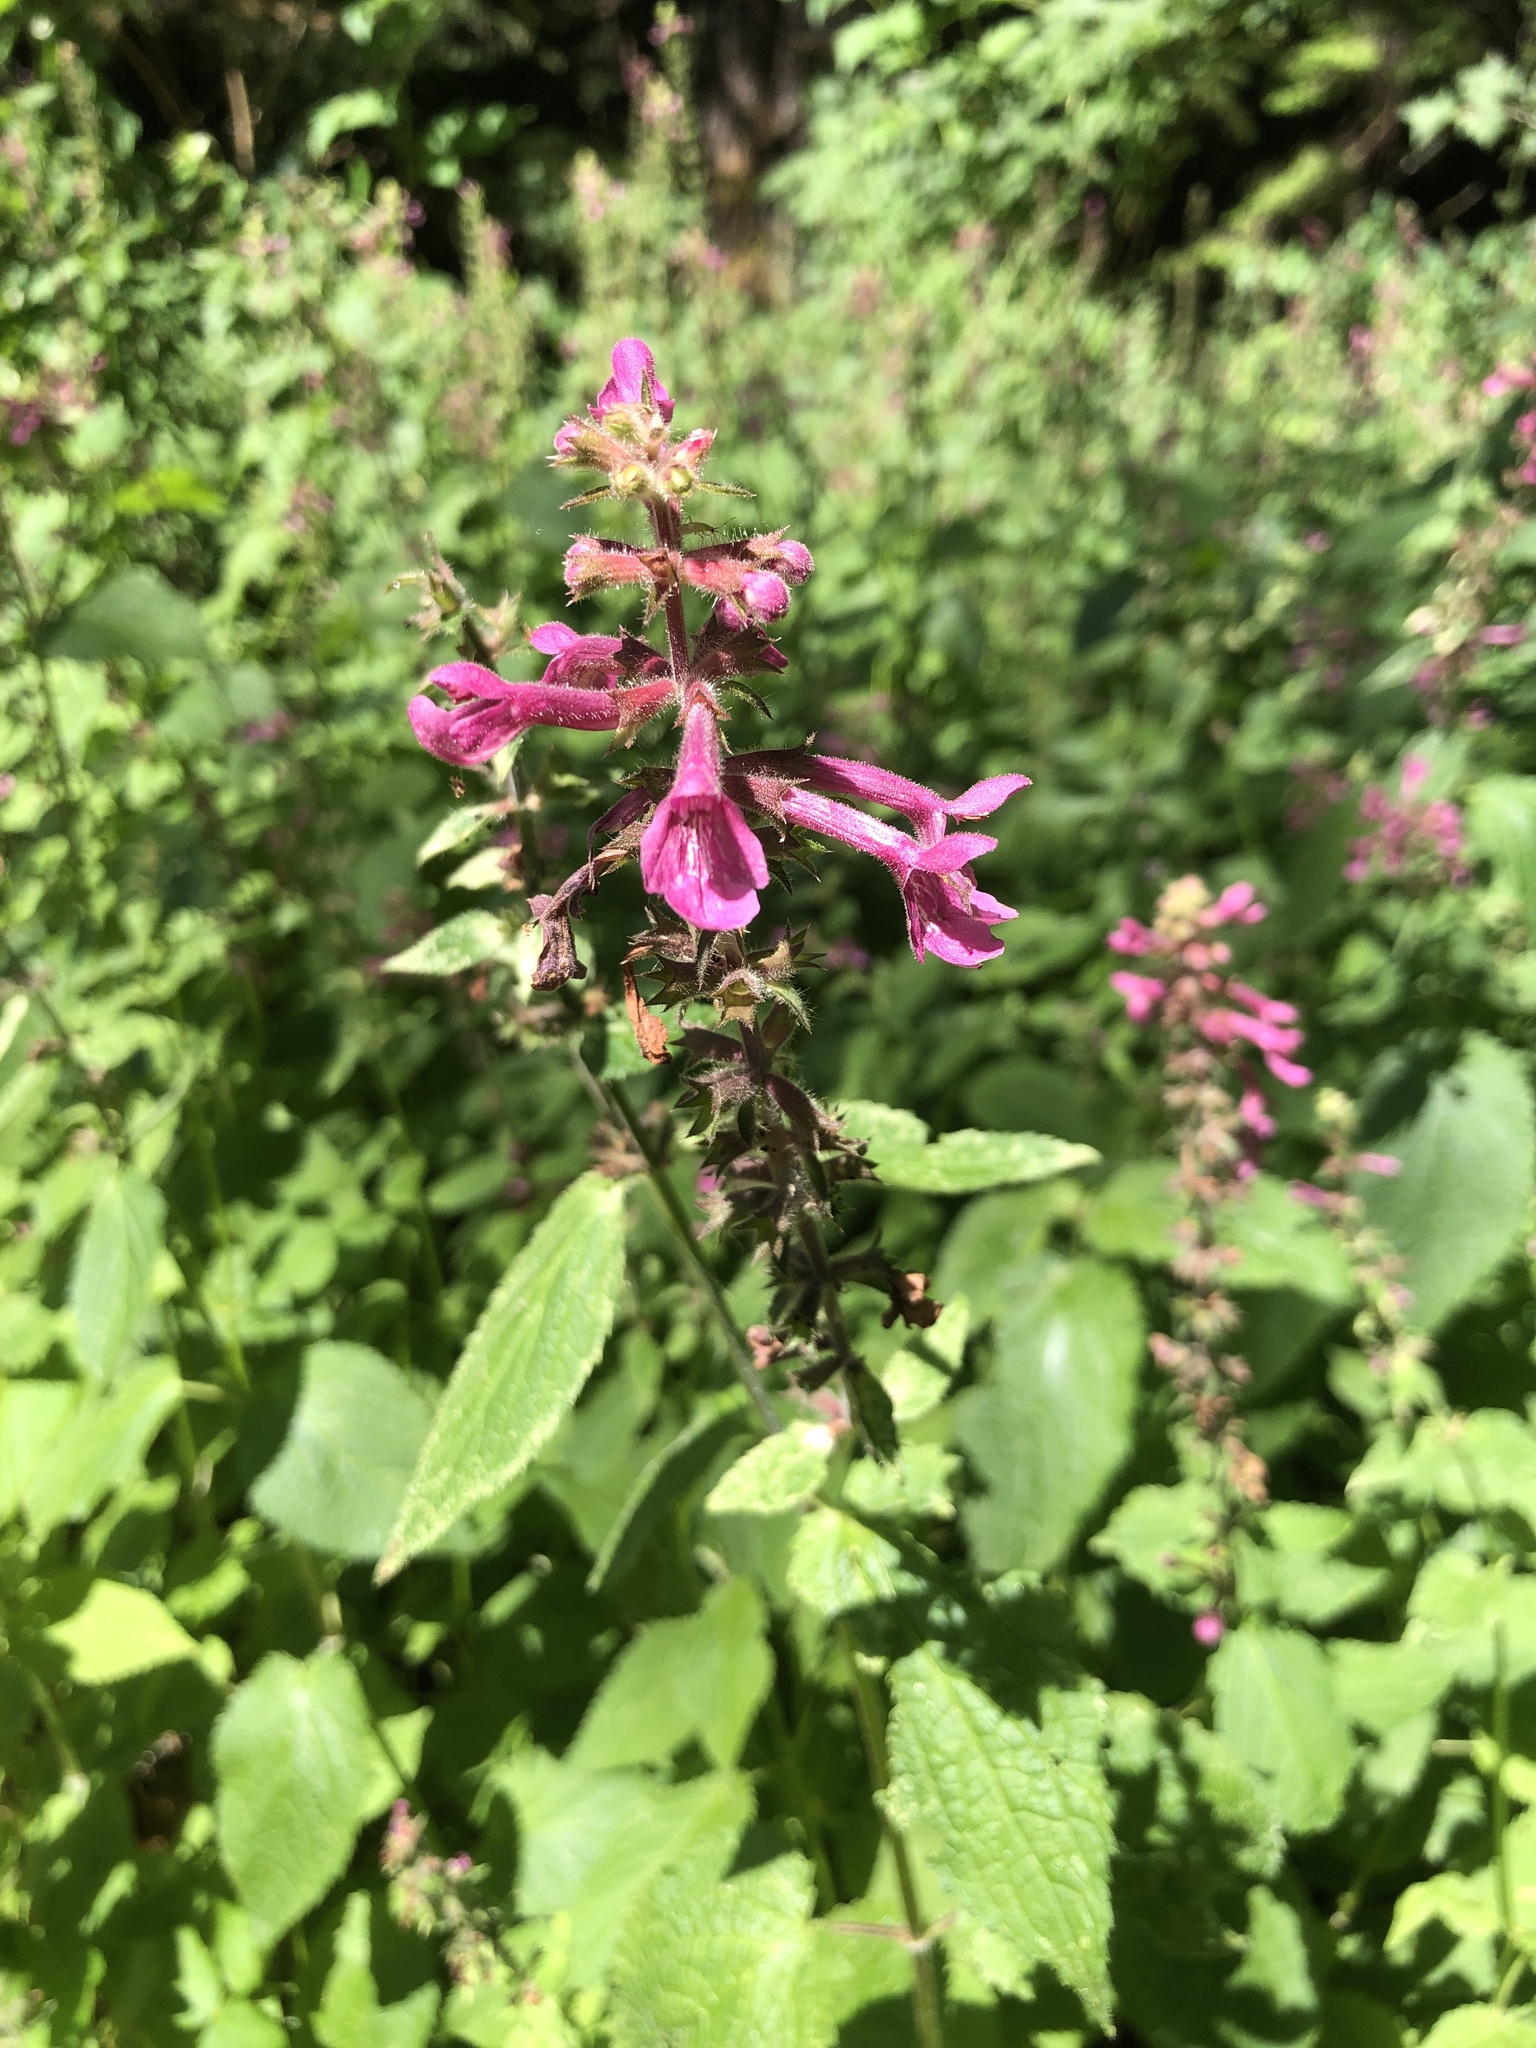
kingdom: Plantae
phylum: Tracheophyta
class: Magnoliopsida
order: Lamiales
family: Lamiaceae
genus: Stachys
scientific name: Stachys chamissonis
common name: Coastal hedge-nettle
